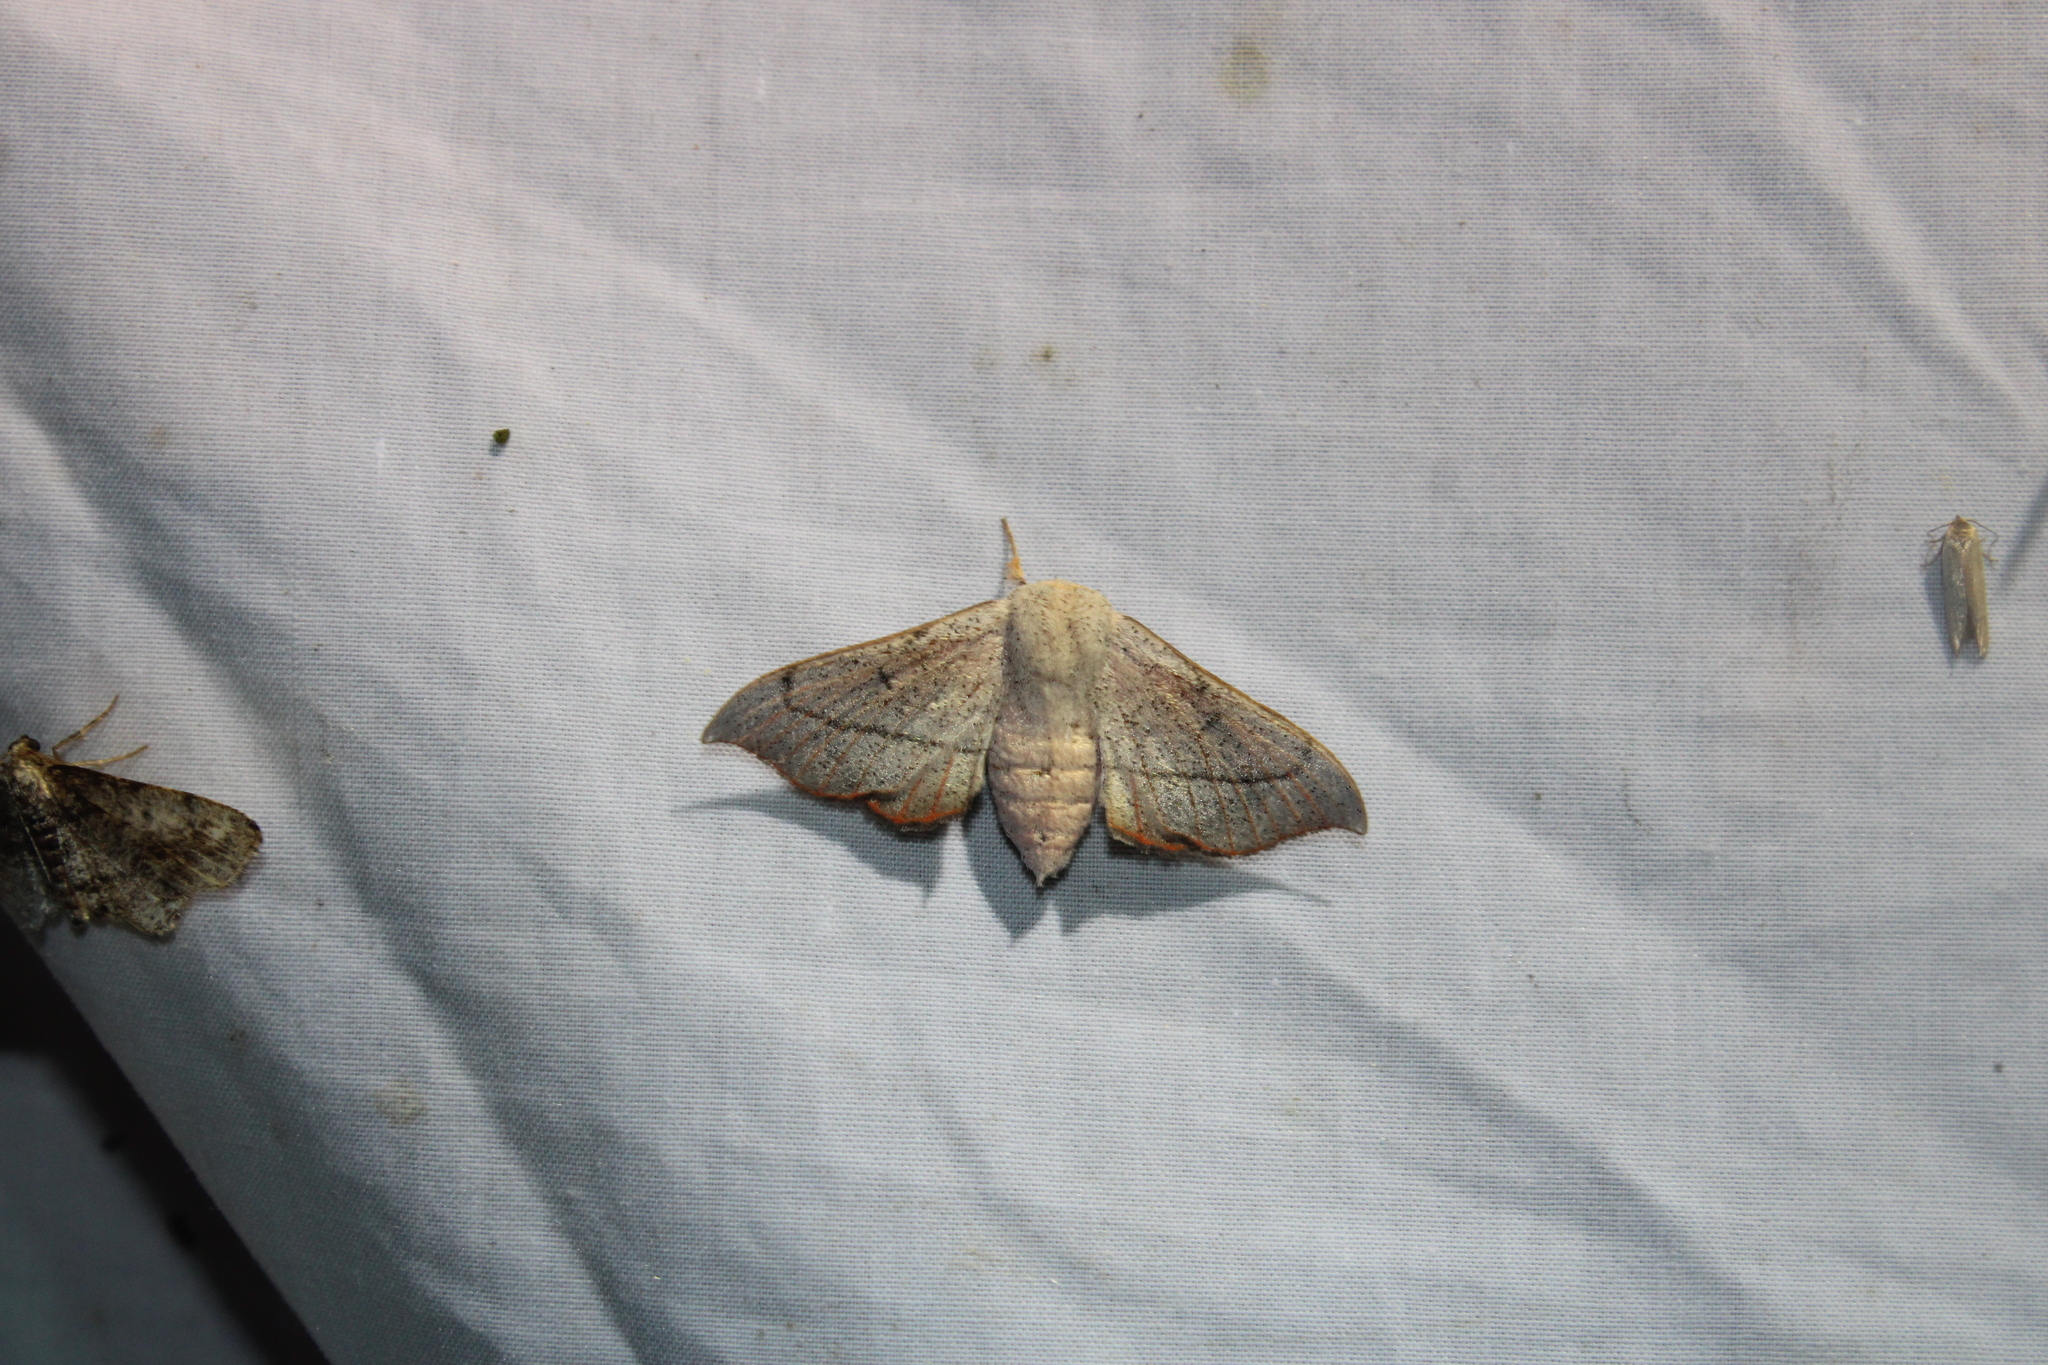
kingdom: Animalia
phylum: Arthropoda
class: Insecta
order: Lepidoptera
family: Mimallonidae
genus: Cicinnus
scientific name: Cicinnus melsheimeri
